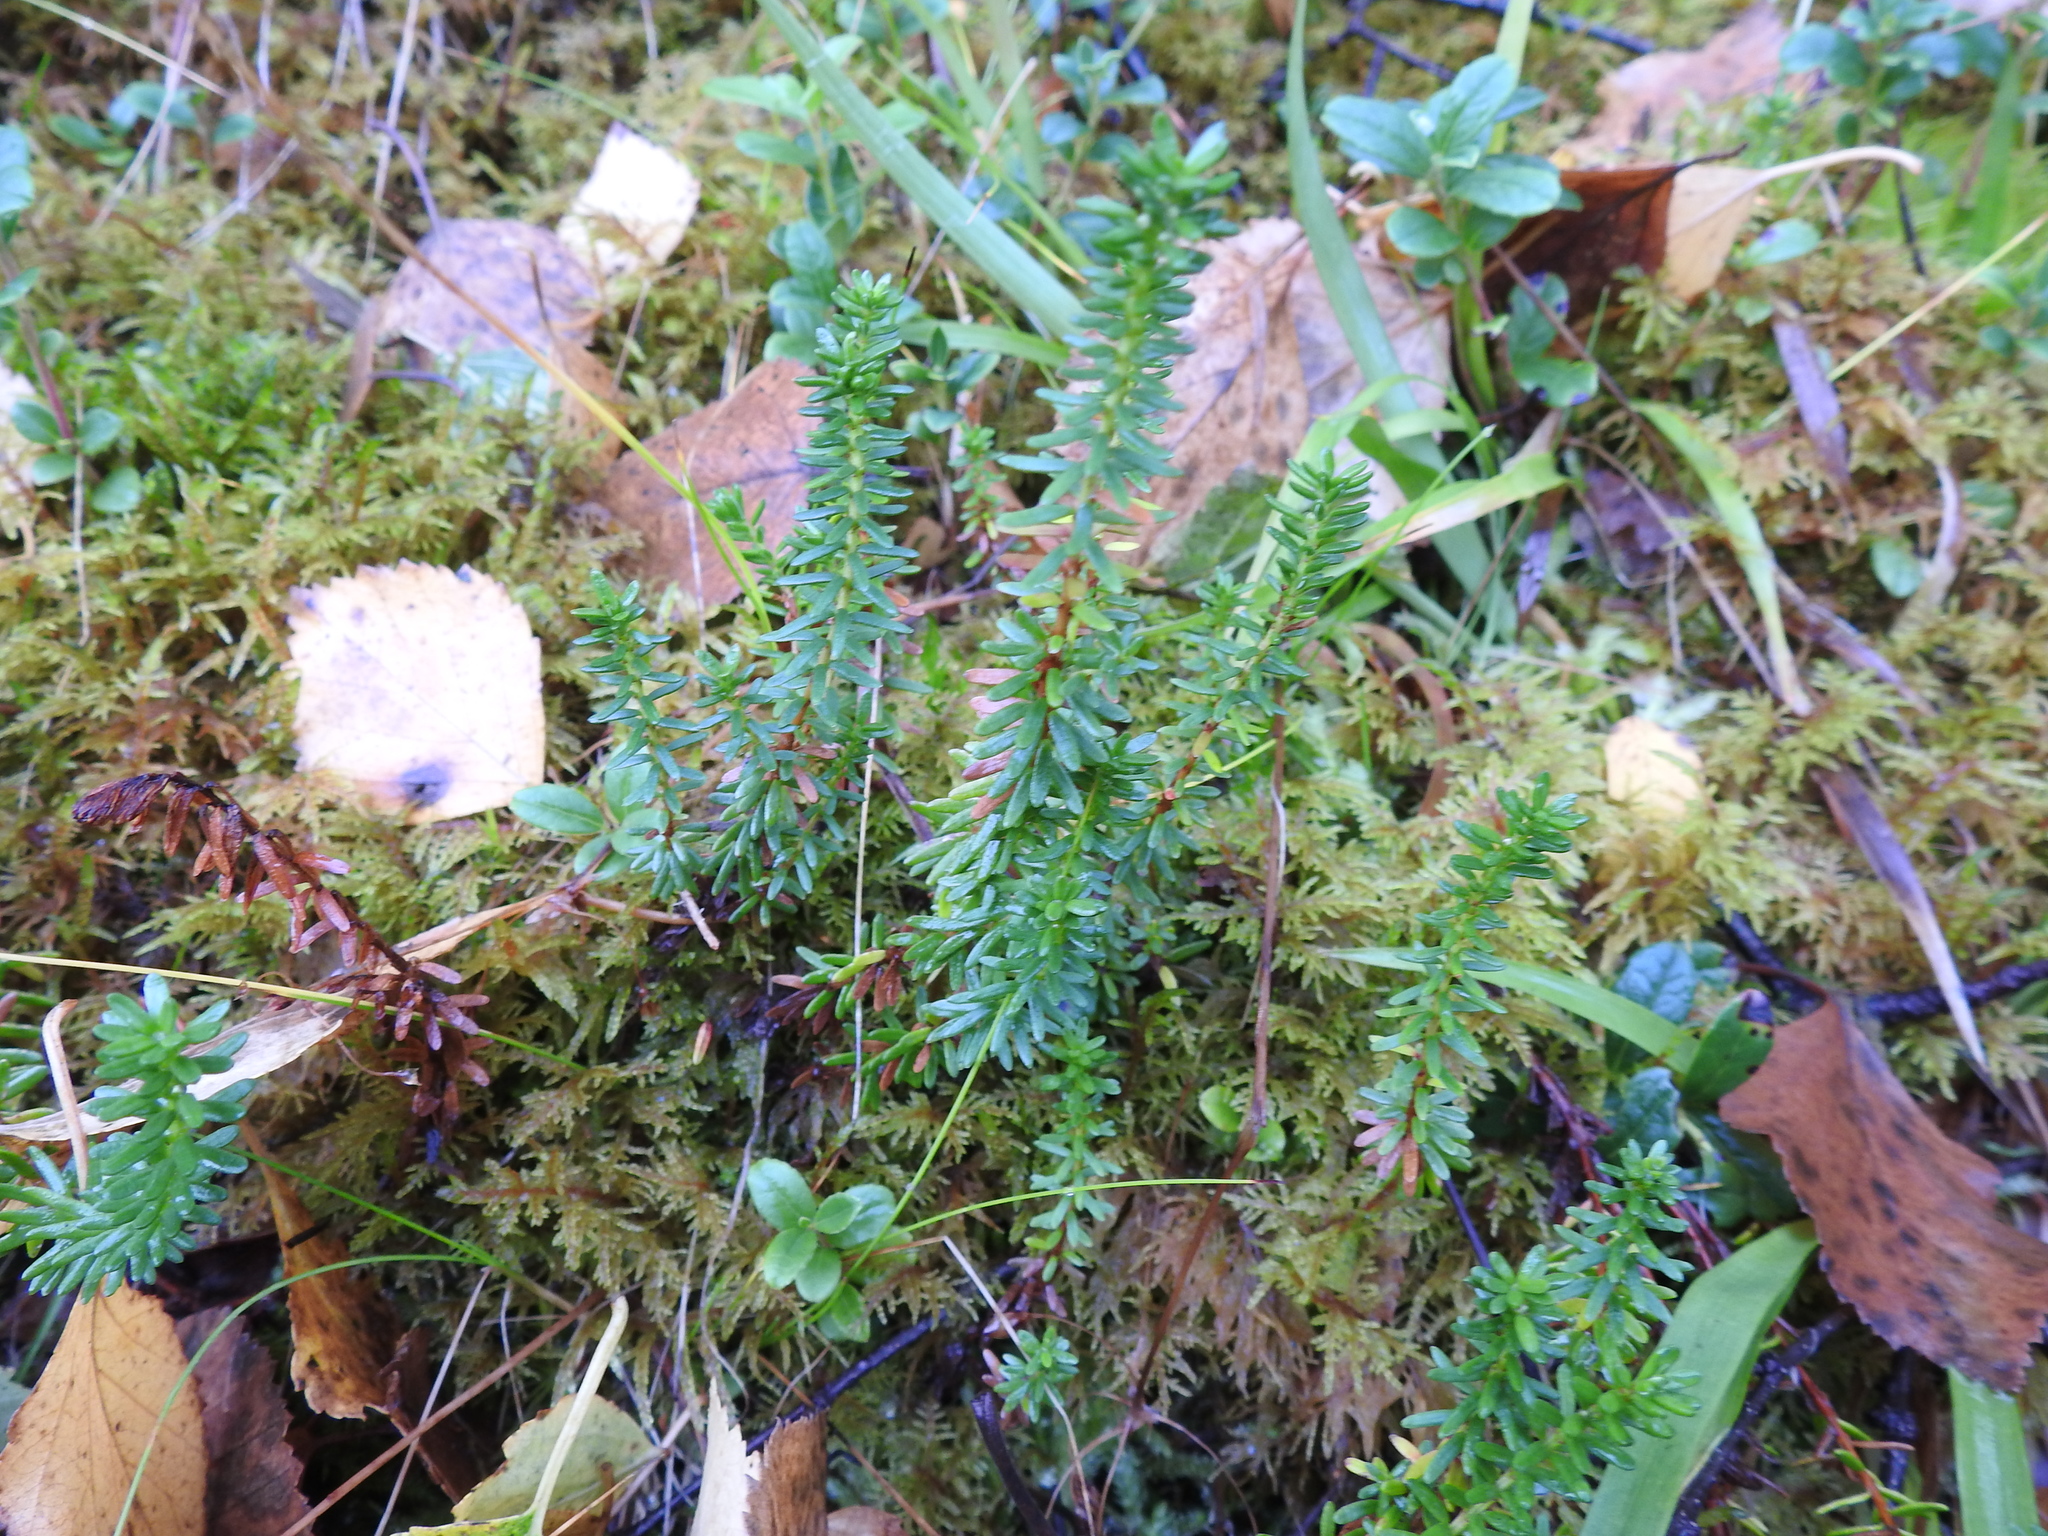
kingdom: Plantae
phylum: Tracheophyta
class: Magnoliopsida
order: Ericales
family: Ericaceae
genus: Empetrum
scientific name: Empetrum nigrum
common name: Black crowberry
